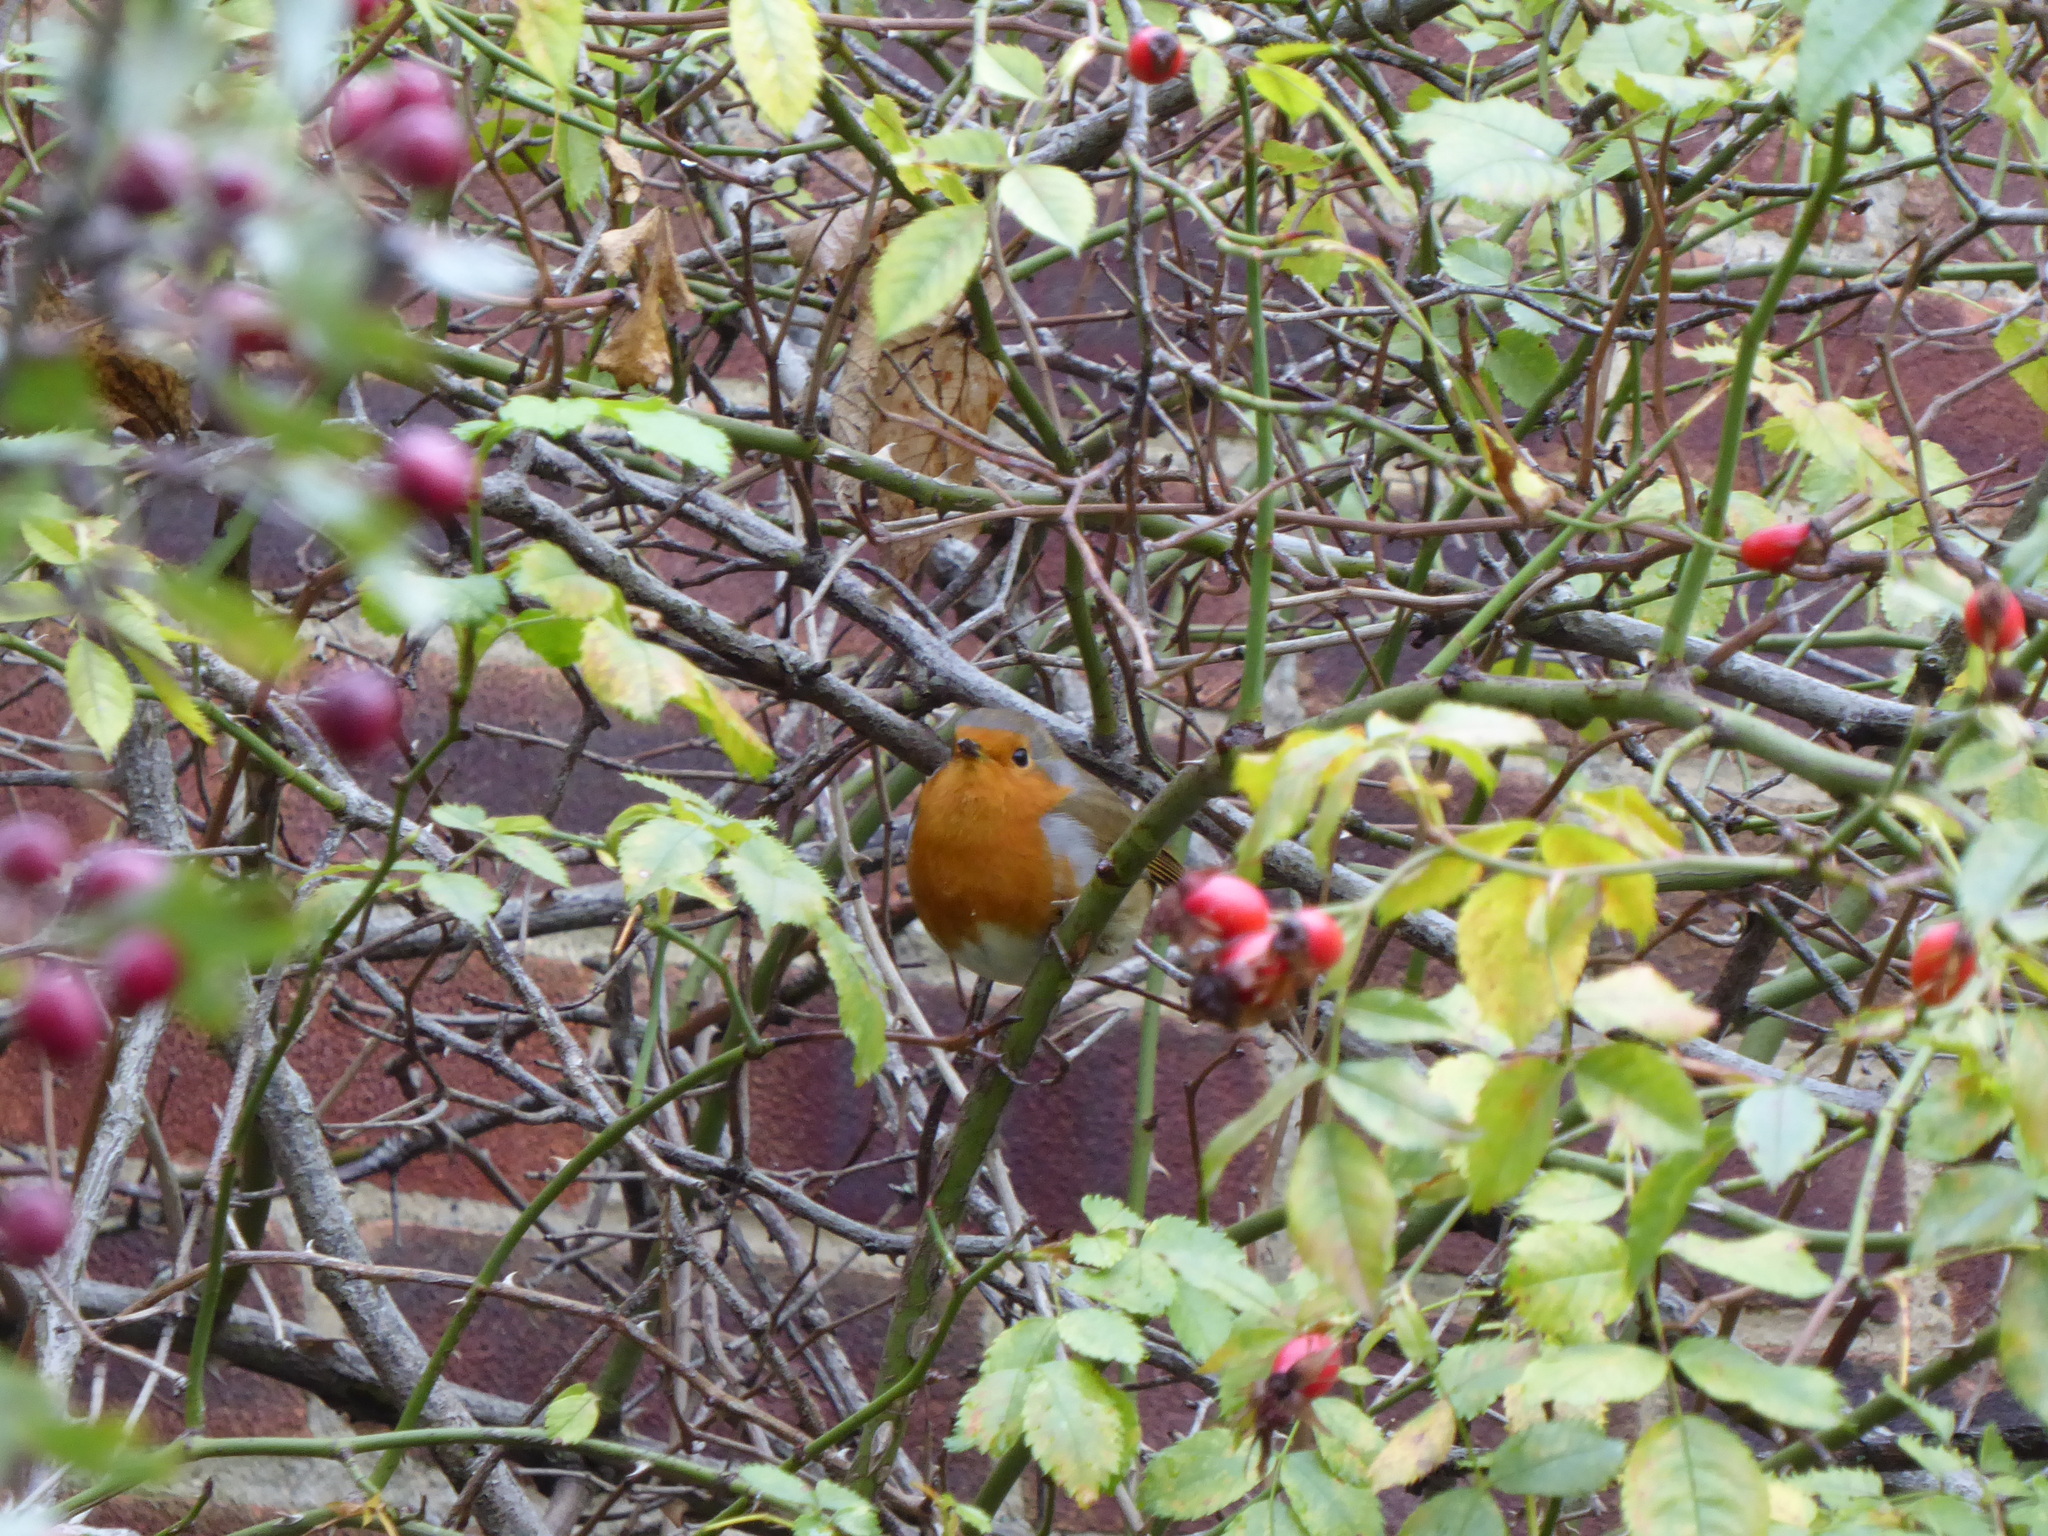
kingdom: Animalia
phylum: Chordata
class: Aves
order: Passeriformes
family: Muscicapidae
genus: Erithacus
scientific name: Erithacus rubecula
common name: European robin
